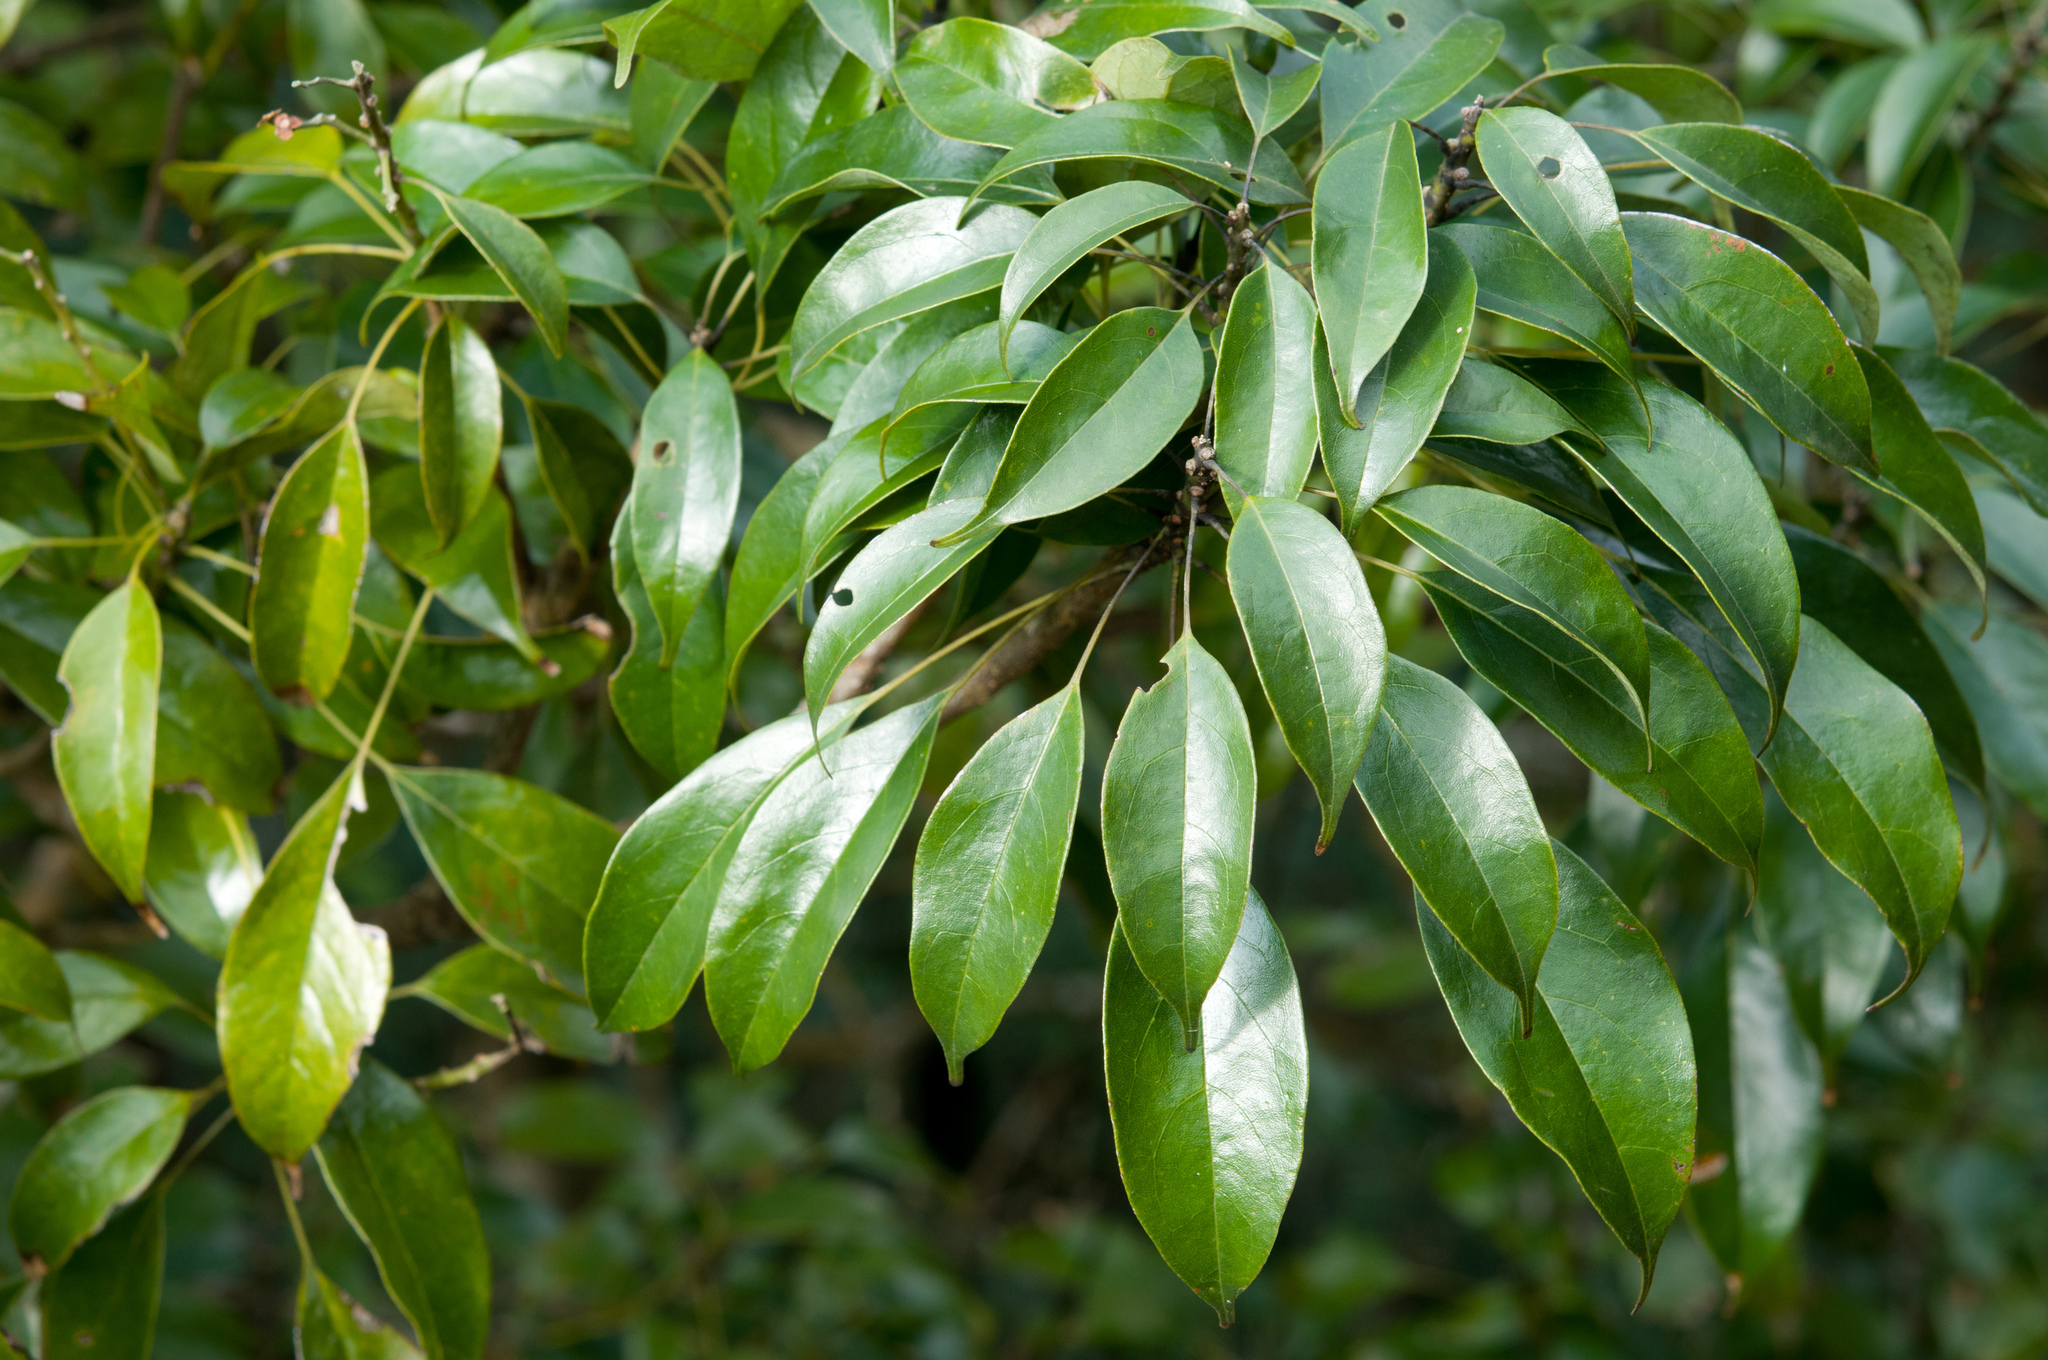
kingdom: Plantae
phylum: Tracheophyta
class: Magnoliopsida
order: Proteales
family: Sabiaceae
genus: Meliosma
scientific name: Meliosma squamulata
